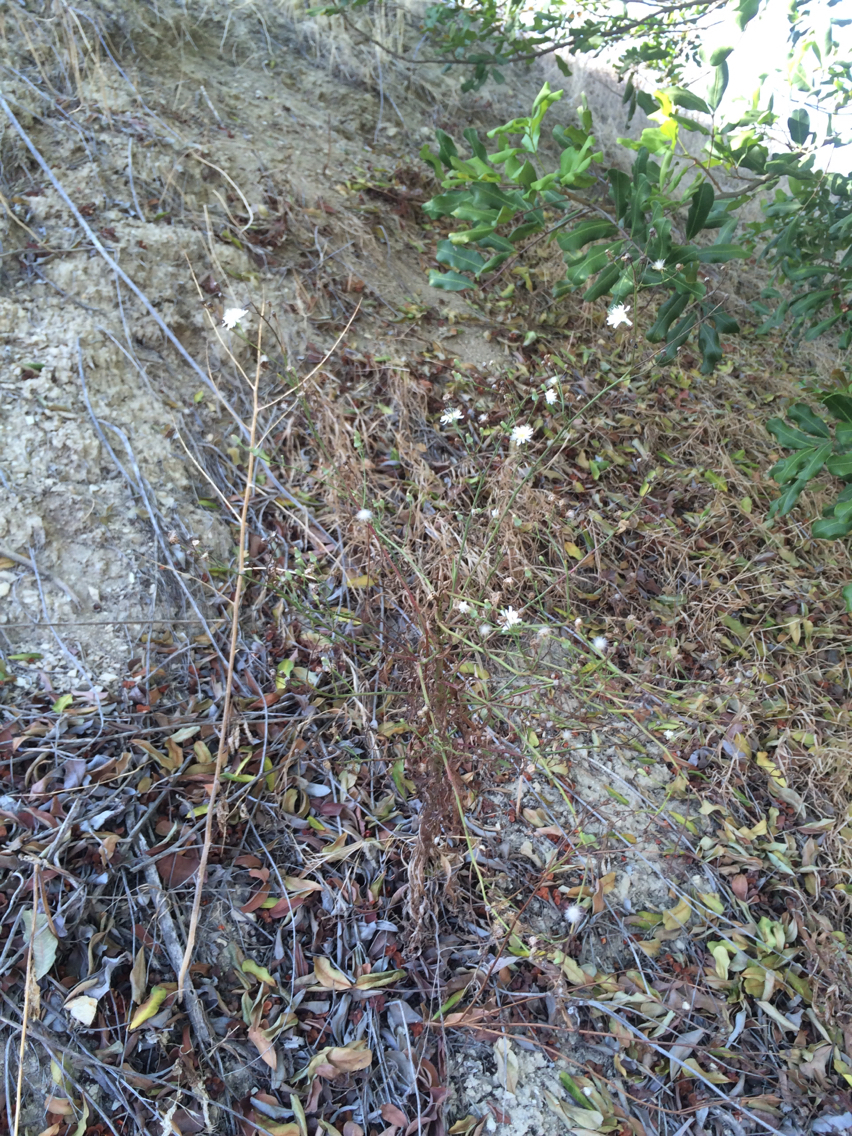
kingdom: Plantae
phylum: Tracheophyta
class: Magnoliopsida
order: Asterales
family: Asteraceae
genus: Malacothrix
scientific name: Malacothrix saxatilis
